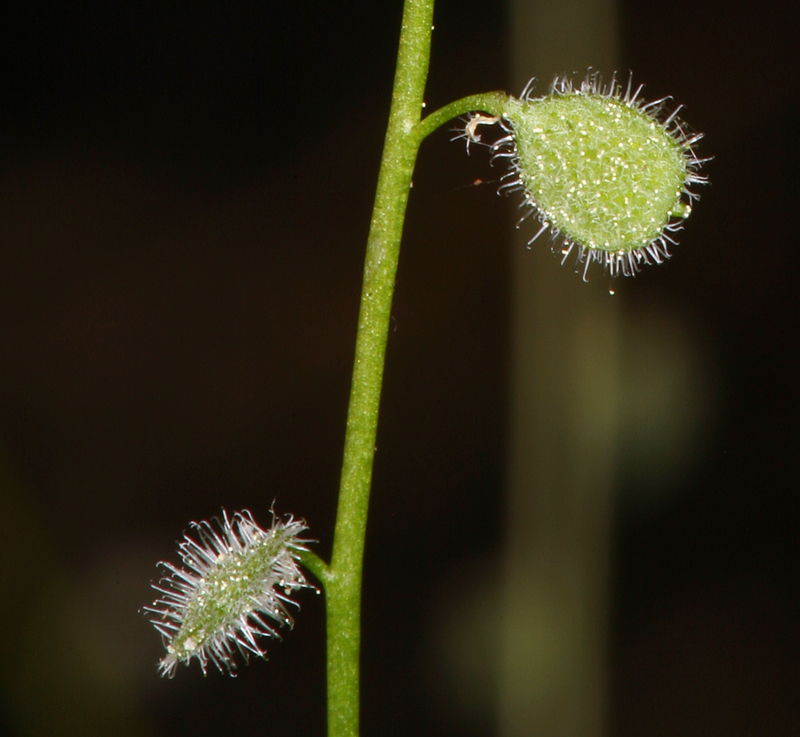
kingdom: Plantae
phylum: Tracheophyta
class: Magnoliopsida
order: Brassicales
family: Brassicaceae
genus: Athysanus
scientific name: Athysanus pusillus
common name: Common sandweed
